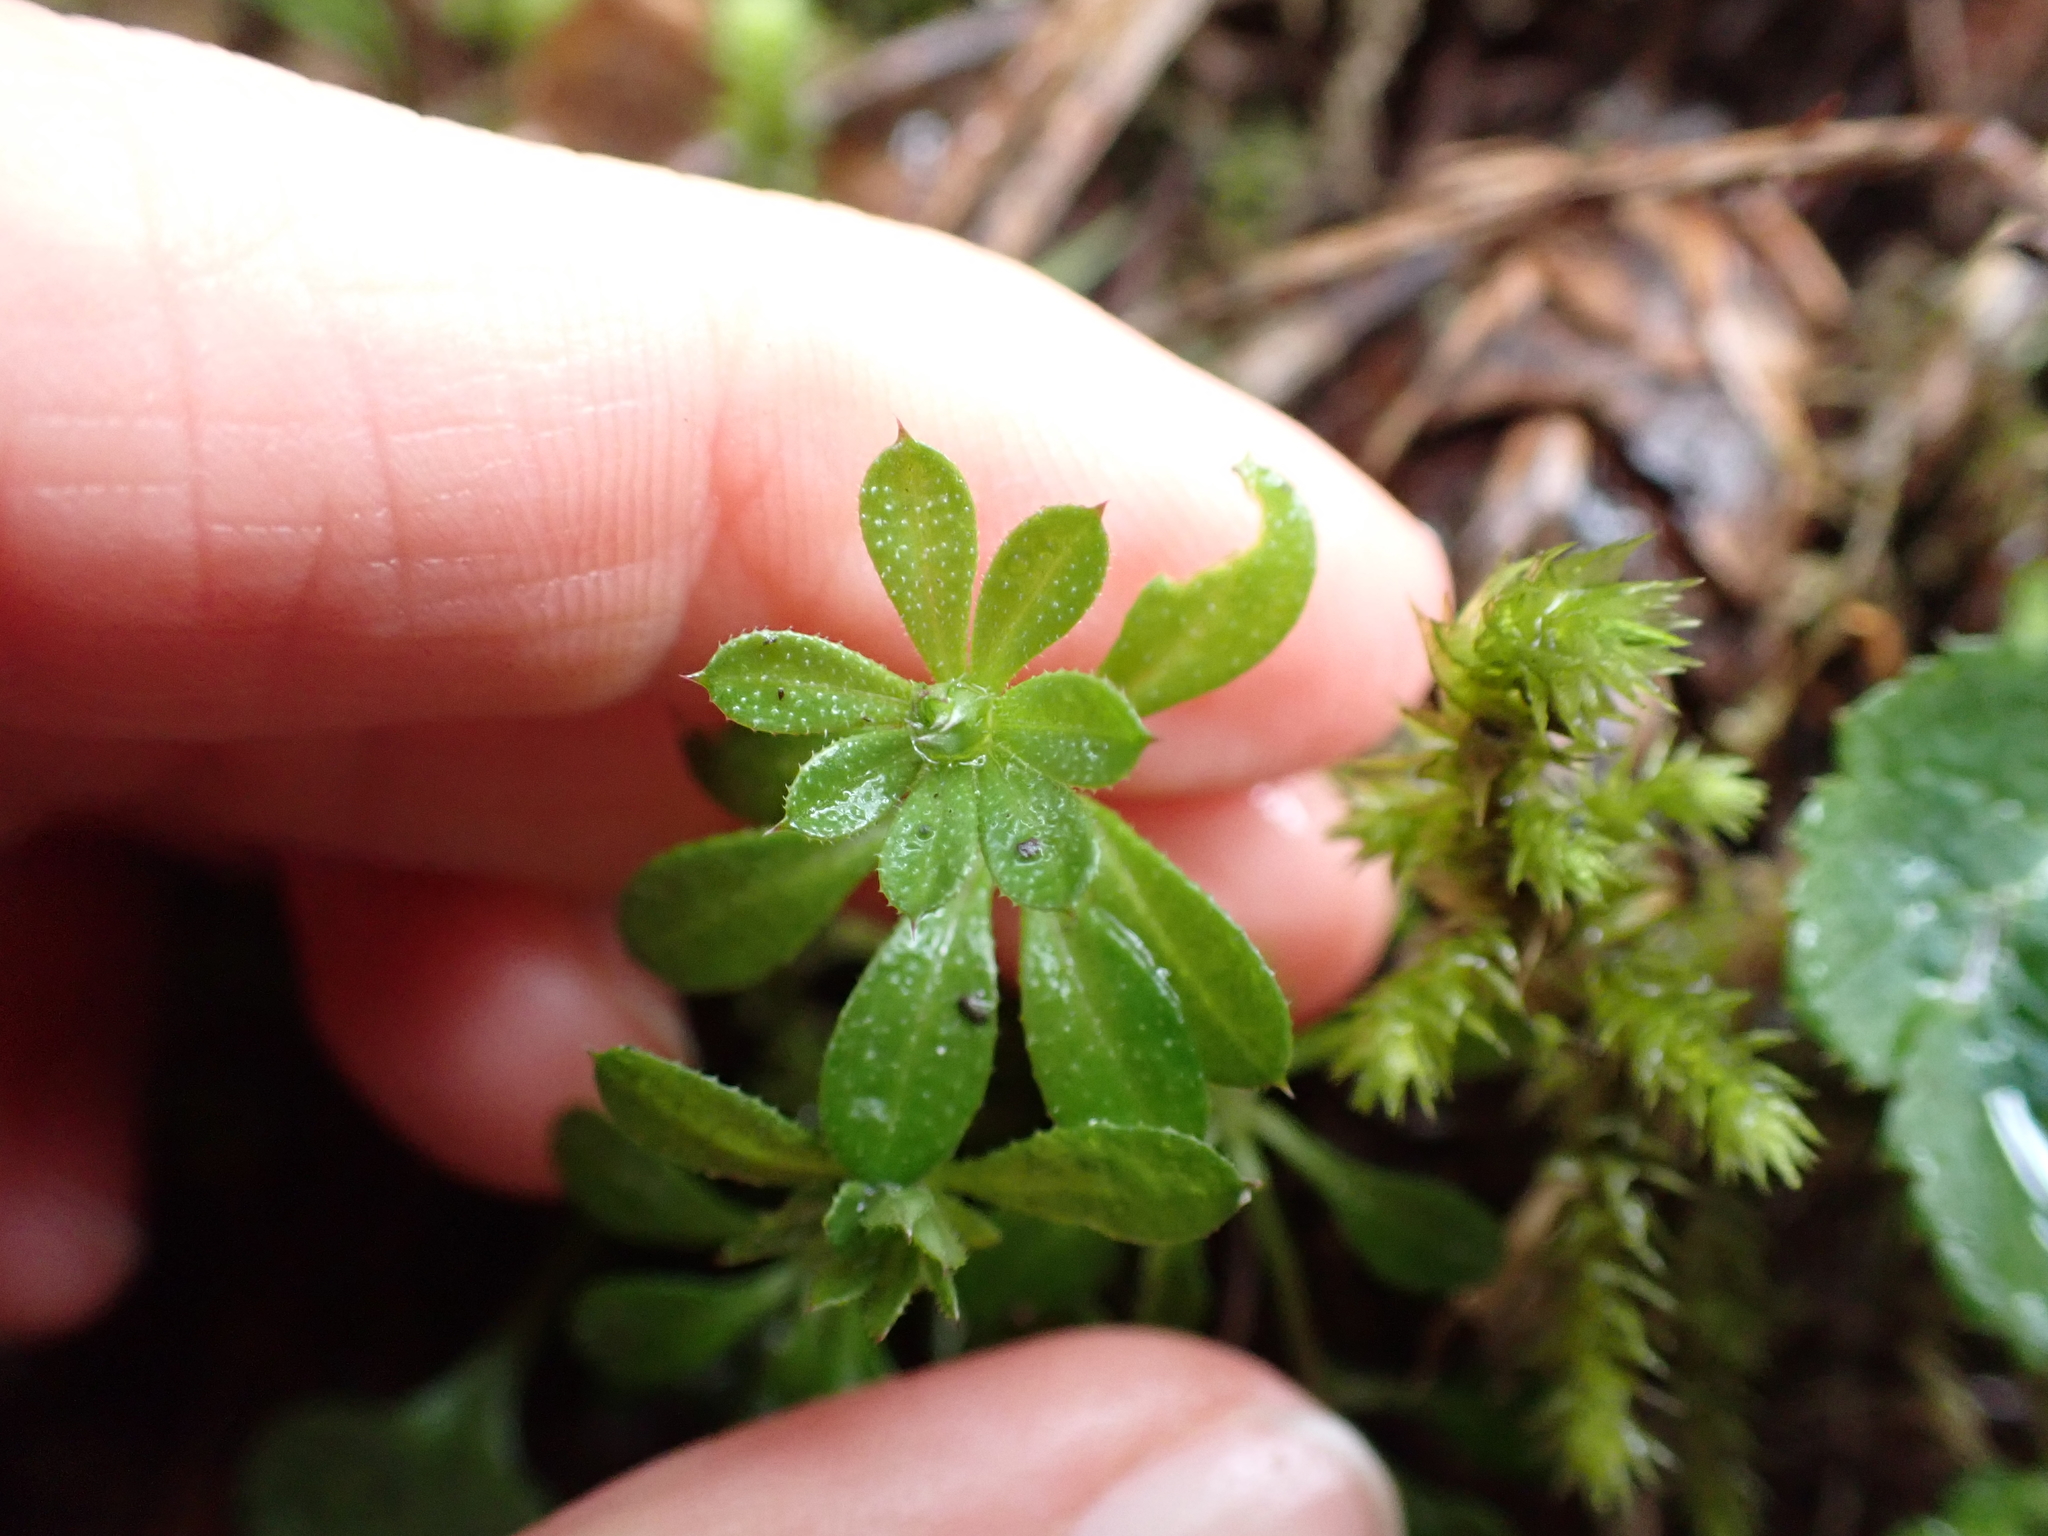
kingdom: Plantae
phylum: Tracheophyta
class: Magnoliopsida
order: Gentianales
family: Rubiaceae
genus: Galium
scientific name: Galium aparine
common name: Cleavers
